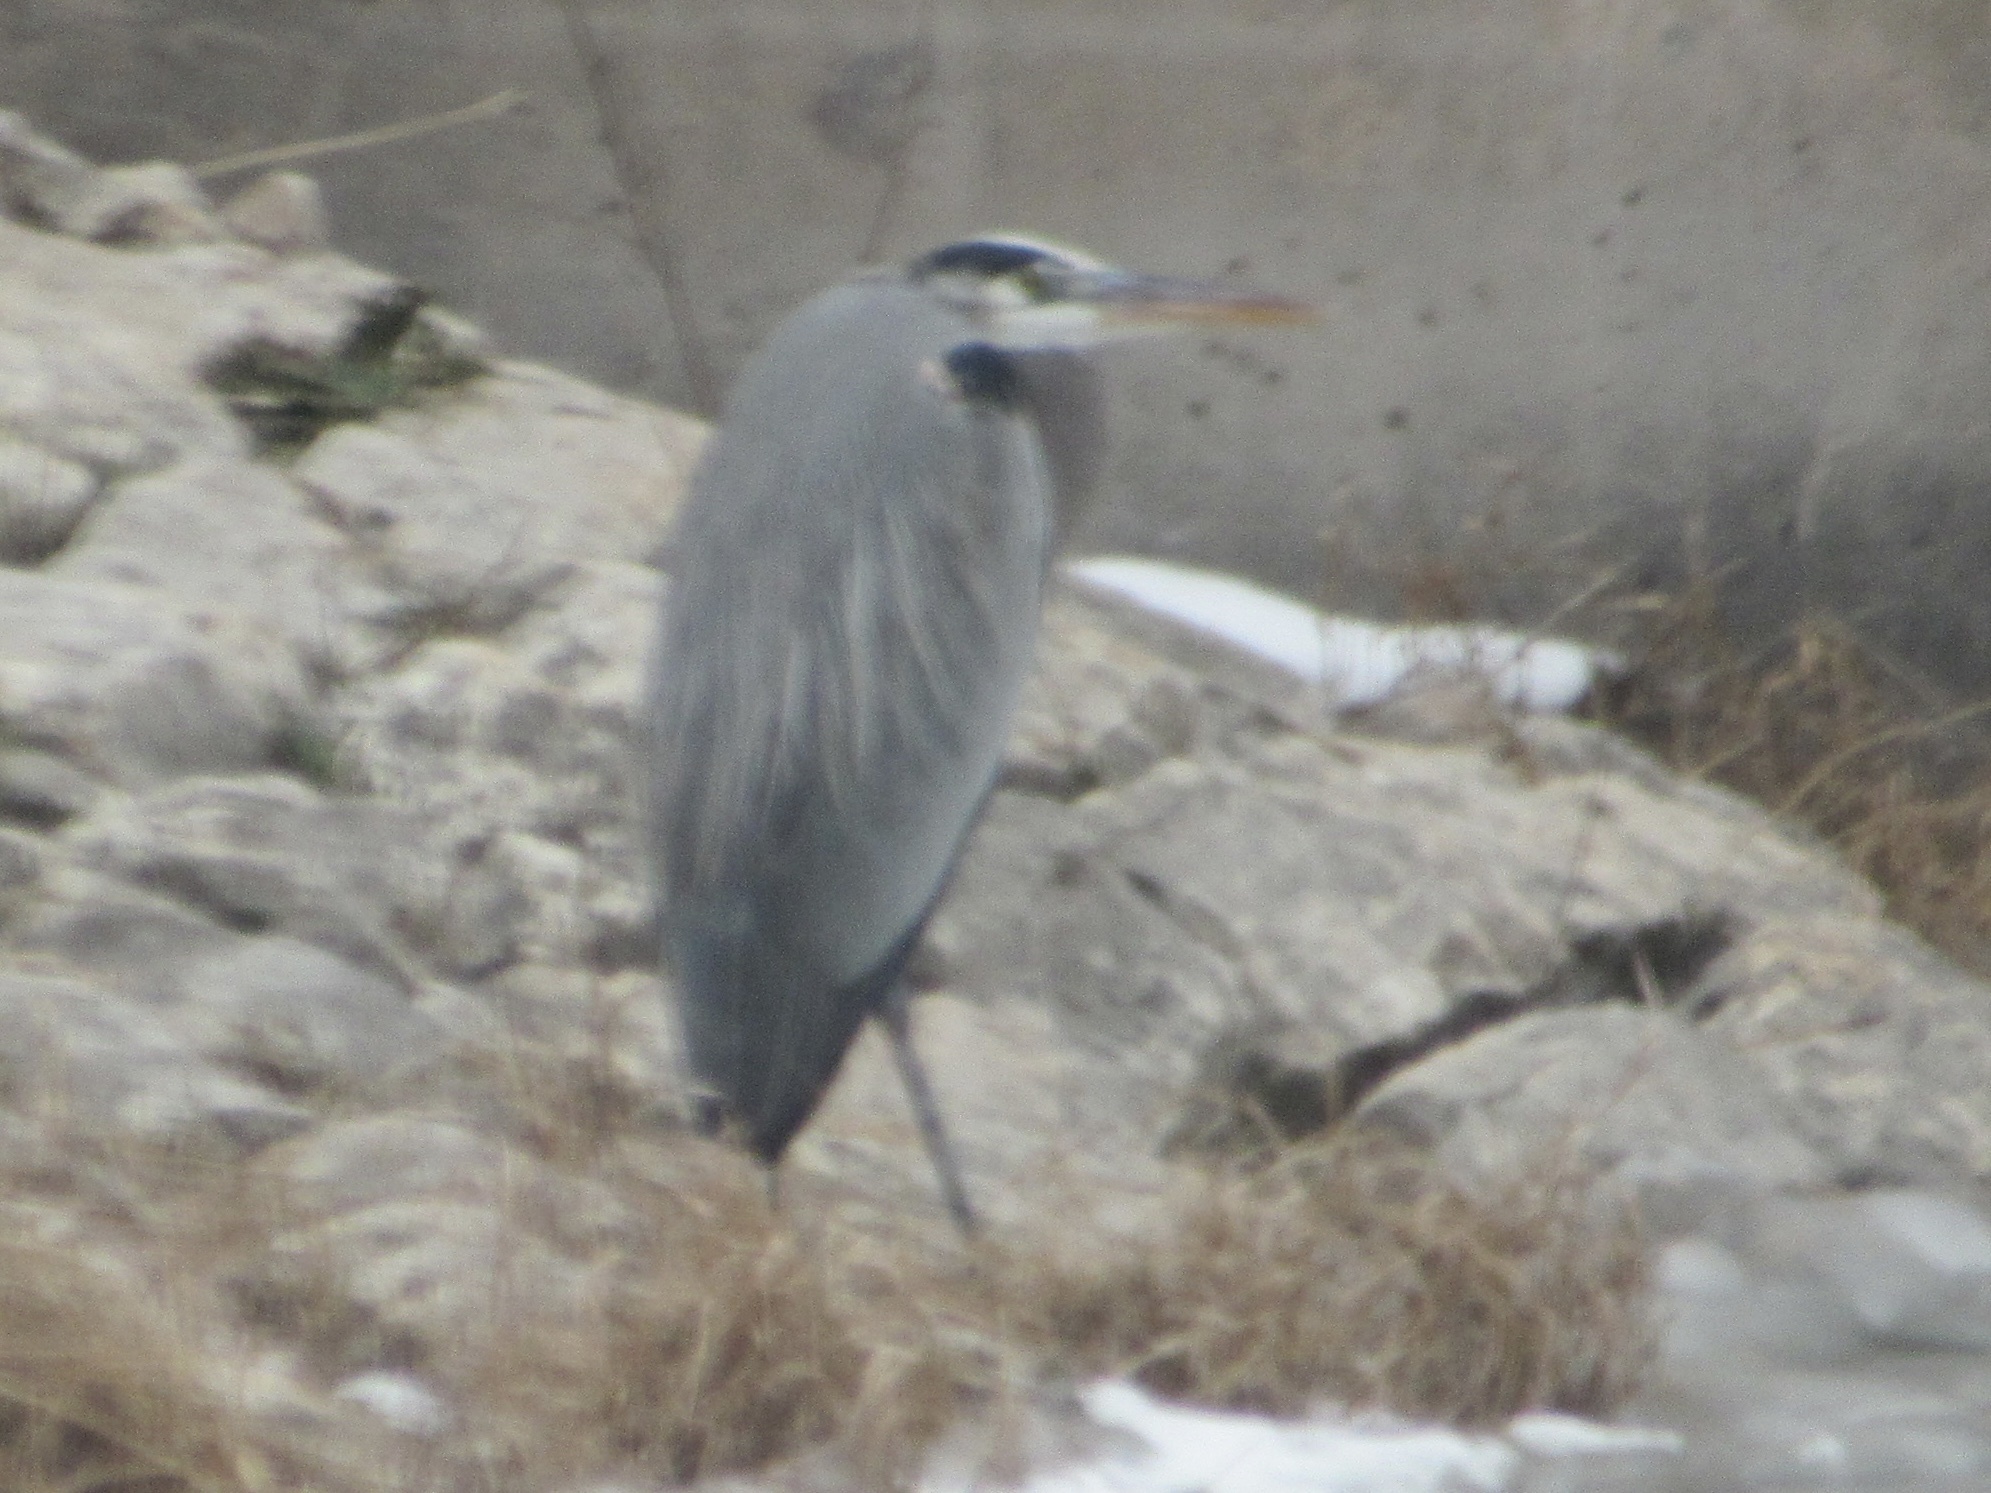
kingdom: Animalia
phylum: Chordata
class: Aves
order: Pelecaniformes
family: Ardeidae
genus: Ardea
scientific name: Ardea herodias
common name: Great blue heron
